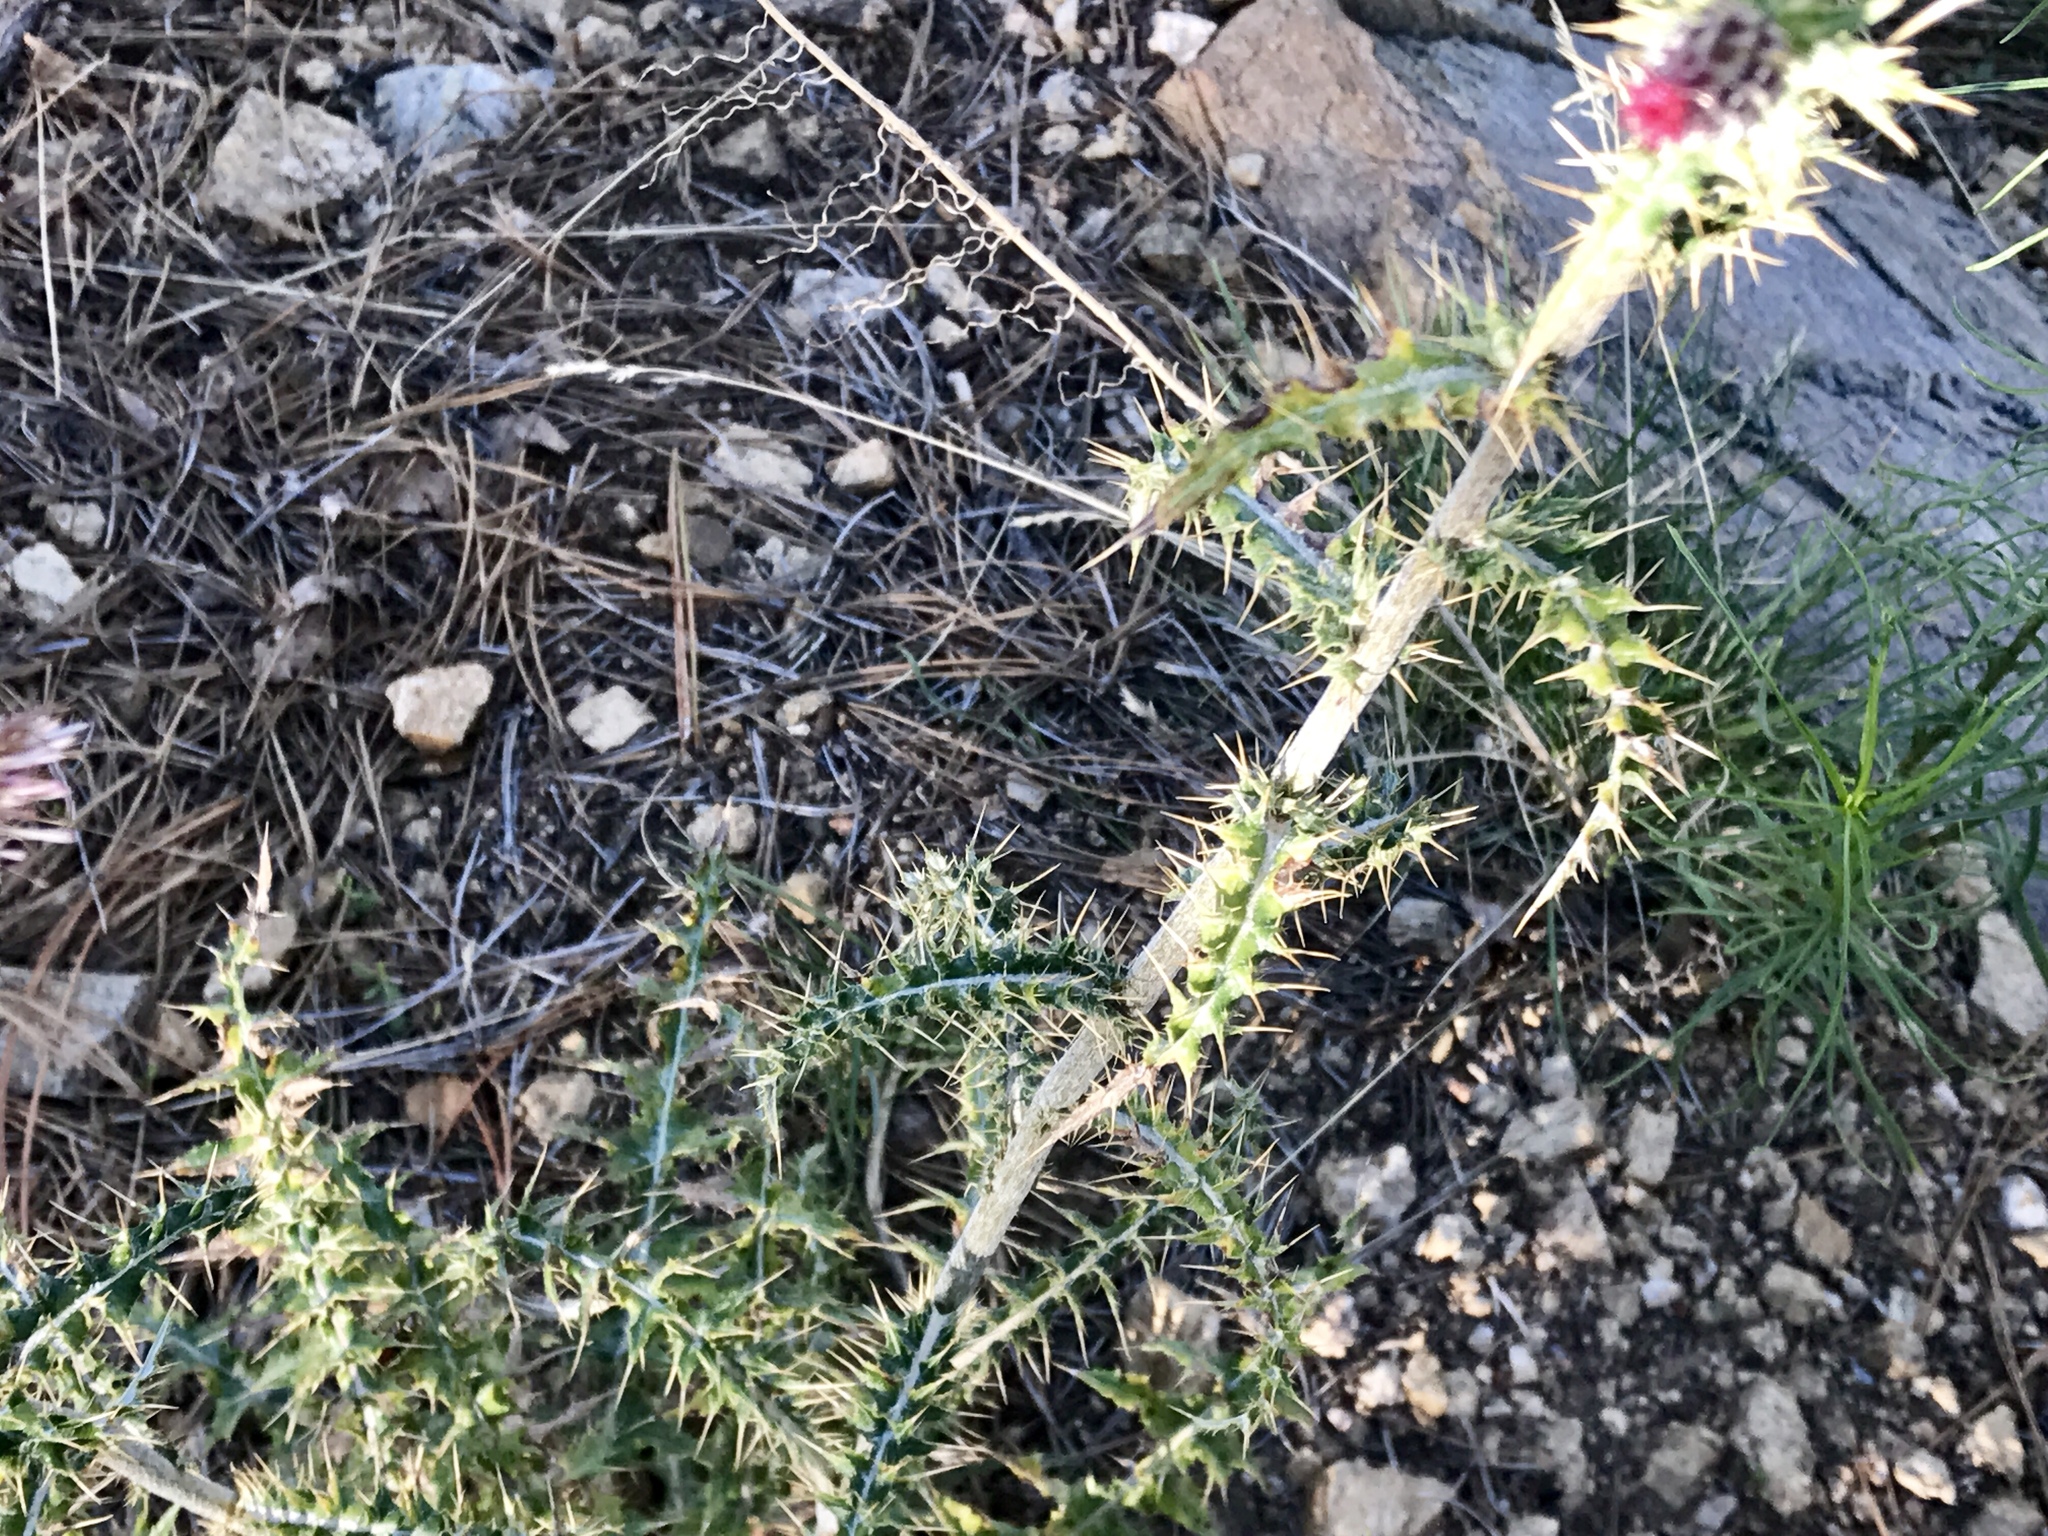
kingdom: Plantae
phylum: Tracheophyta
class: Magnoliopsida
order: Asterales
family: Asteraceae
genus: Cirsium
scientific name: Cirsium arizonicum
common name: Arizona thistle
